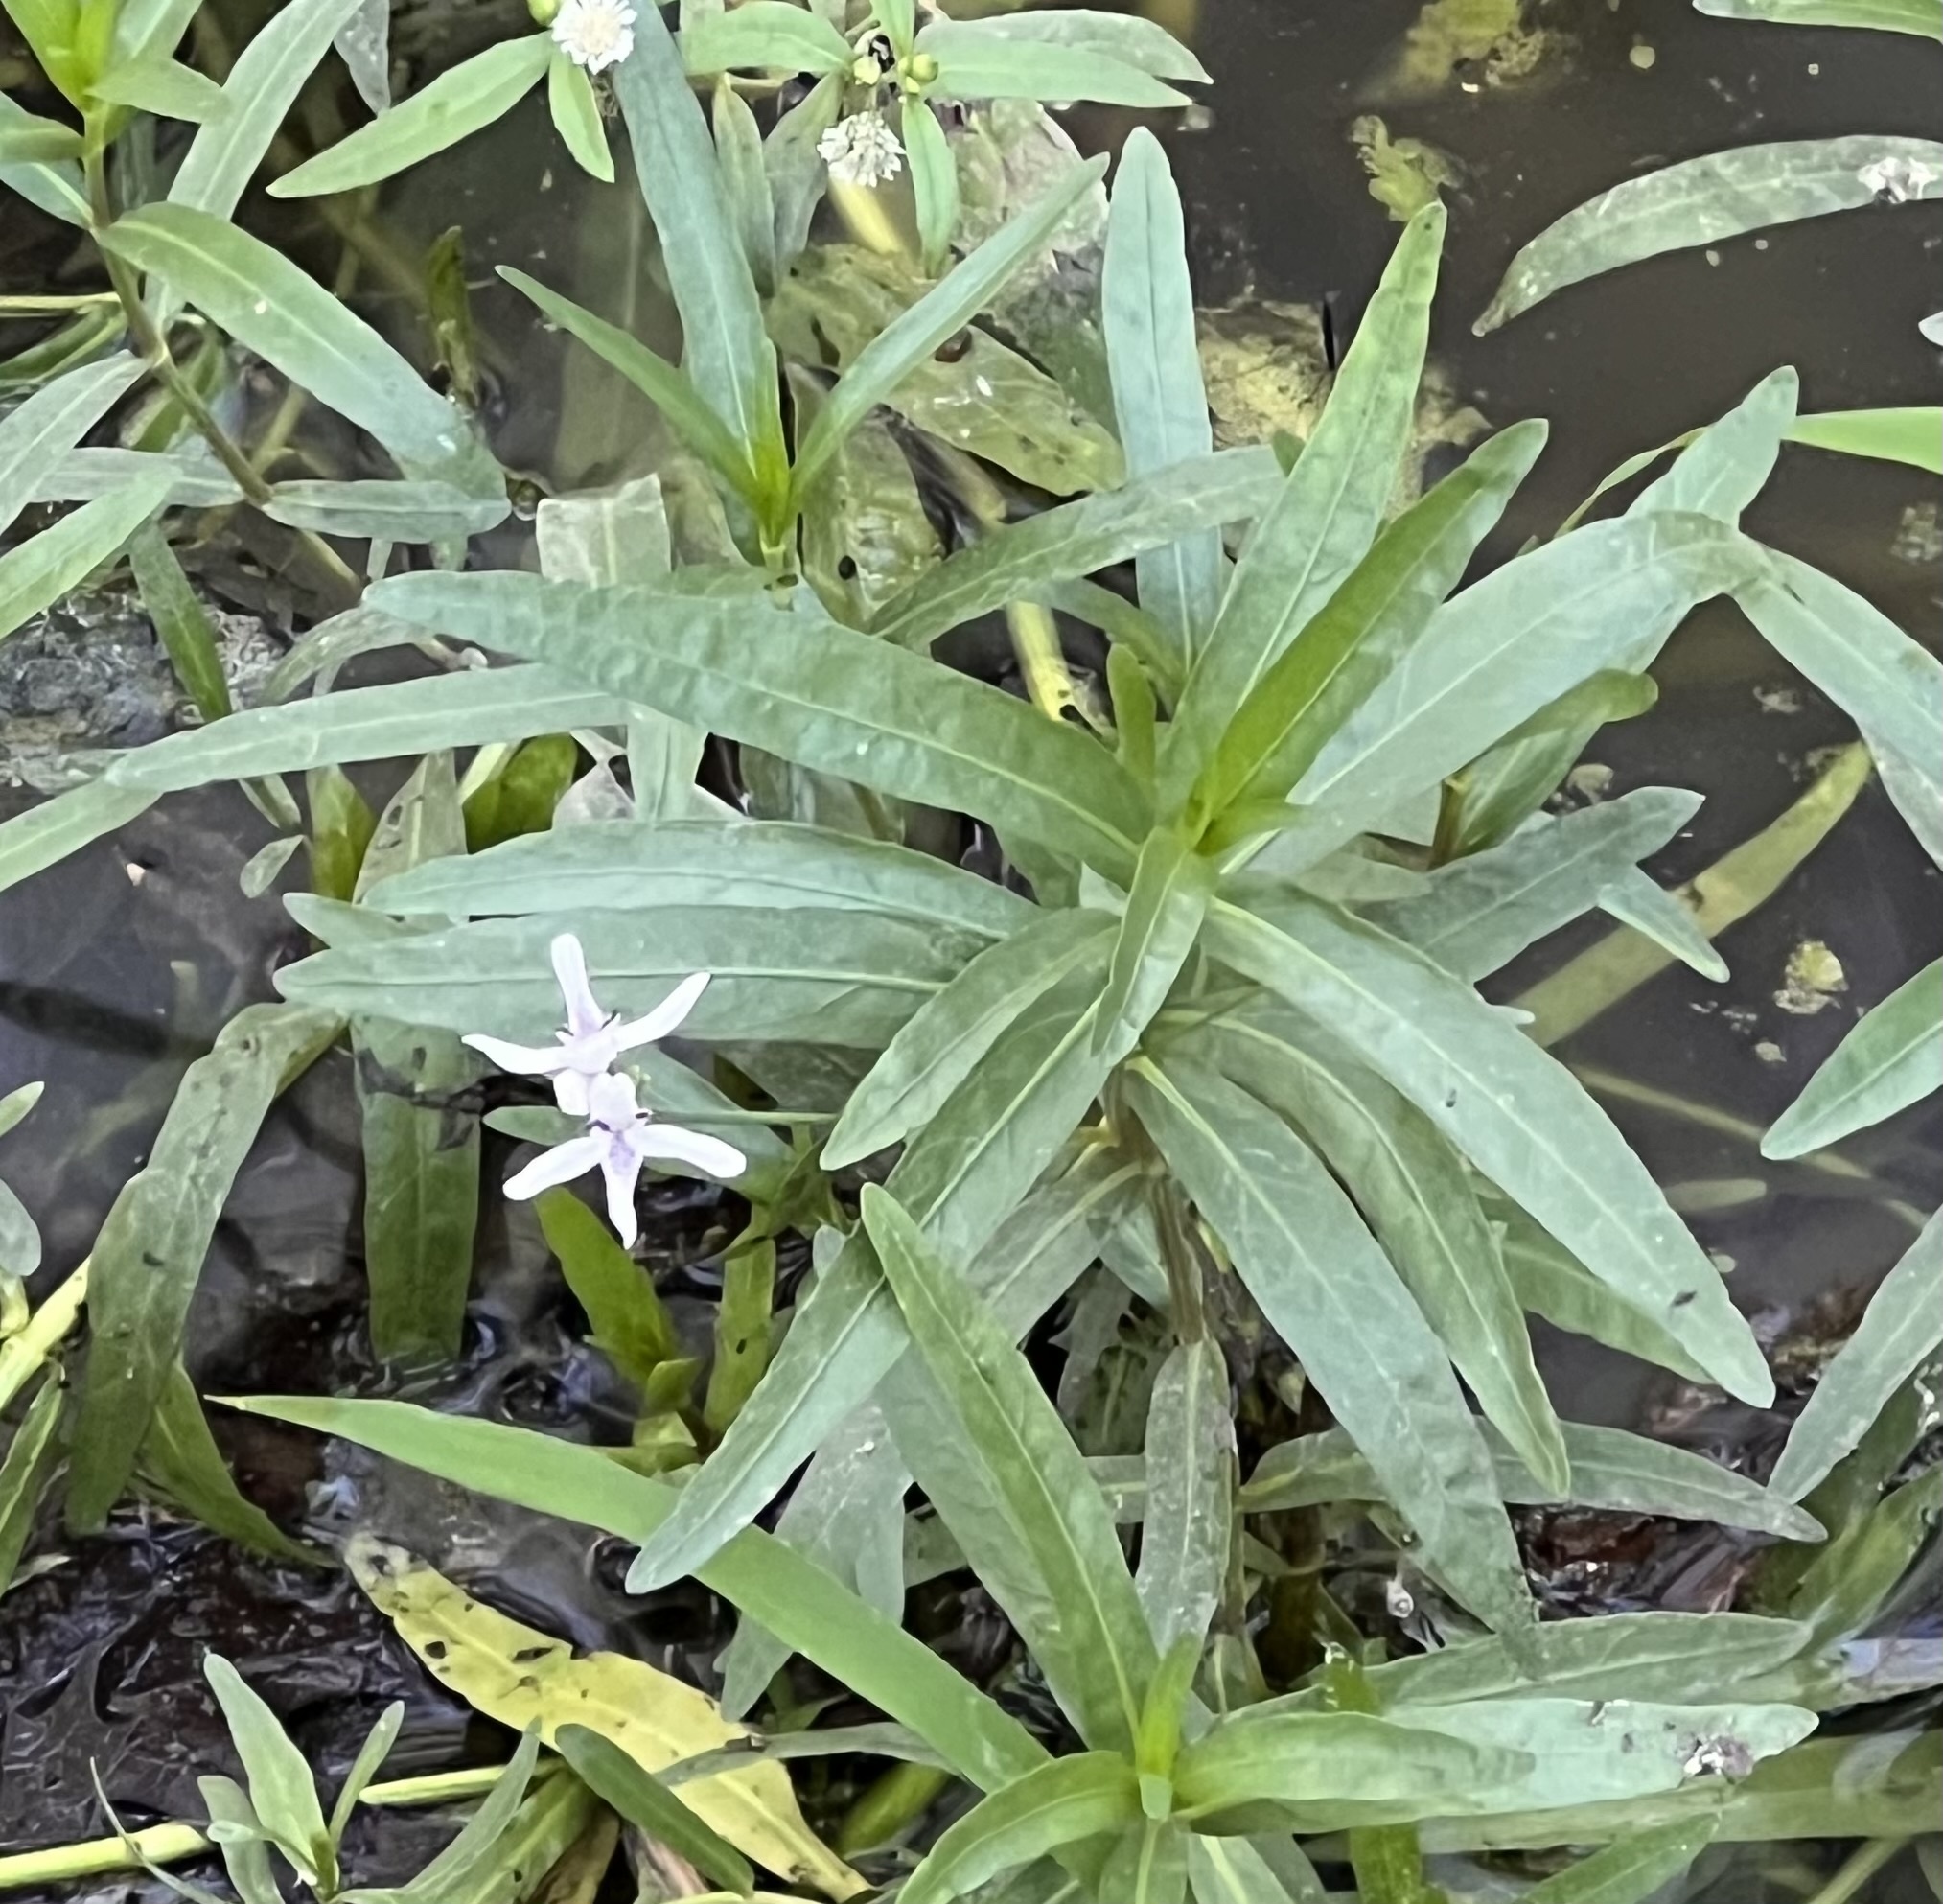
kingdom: Plantae
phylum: Tracheophyta
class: Magnoliopsida
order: Lamiales
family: Acanthaceae
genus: Dianthera
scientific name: Dianthera americana
